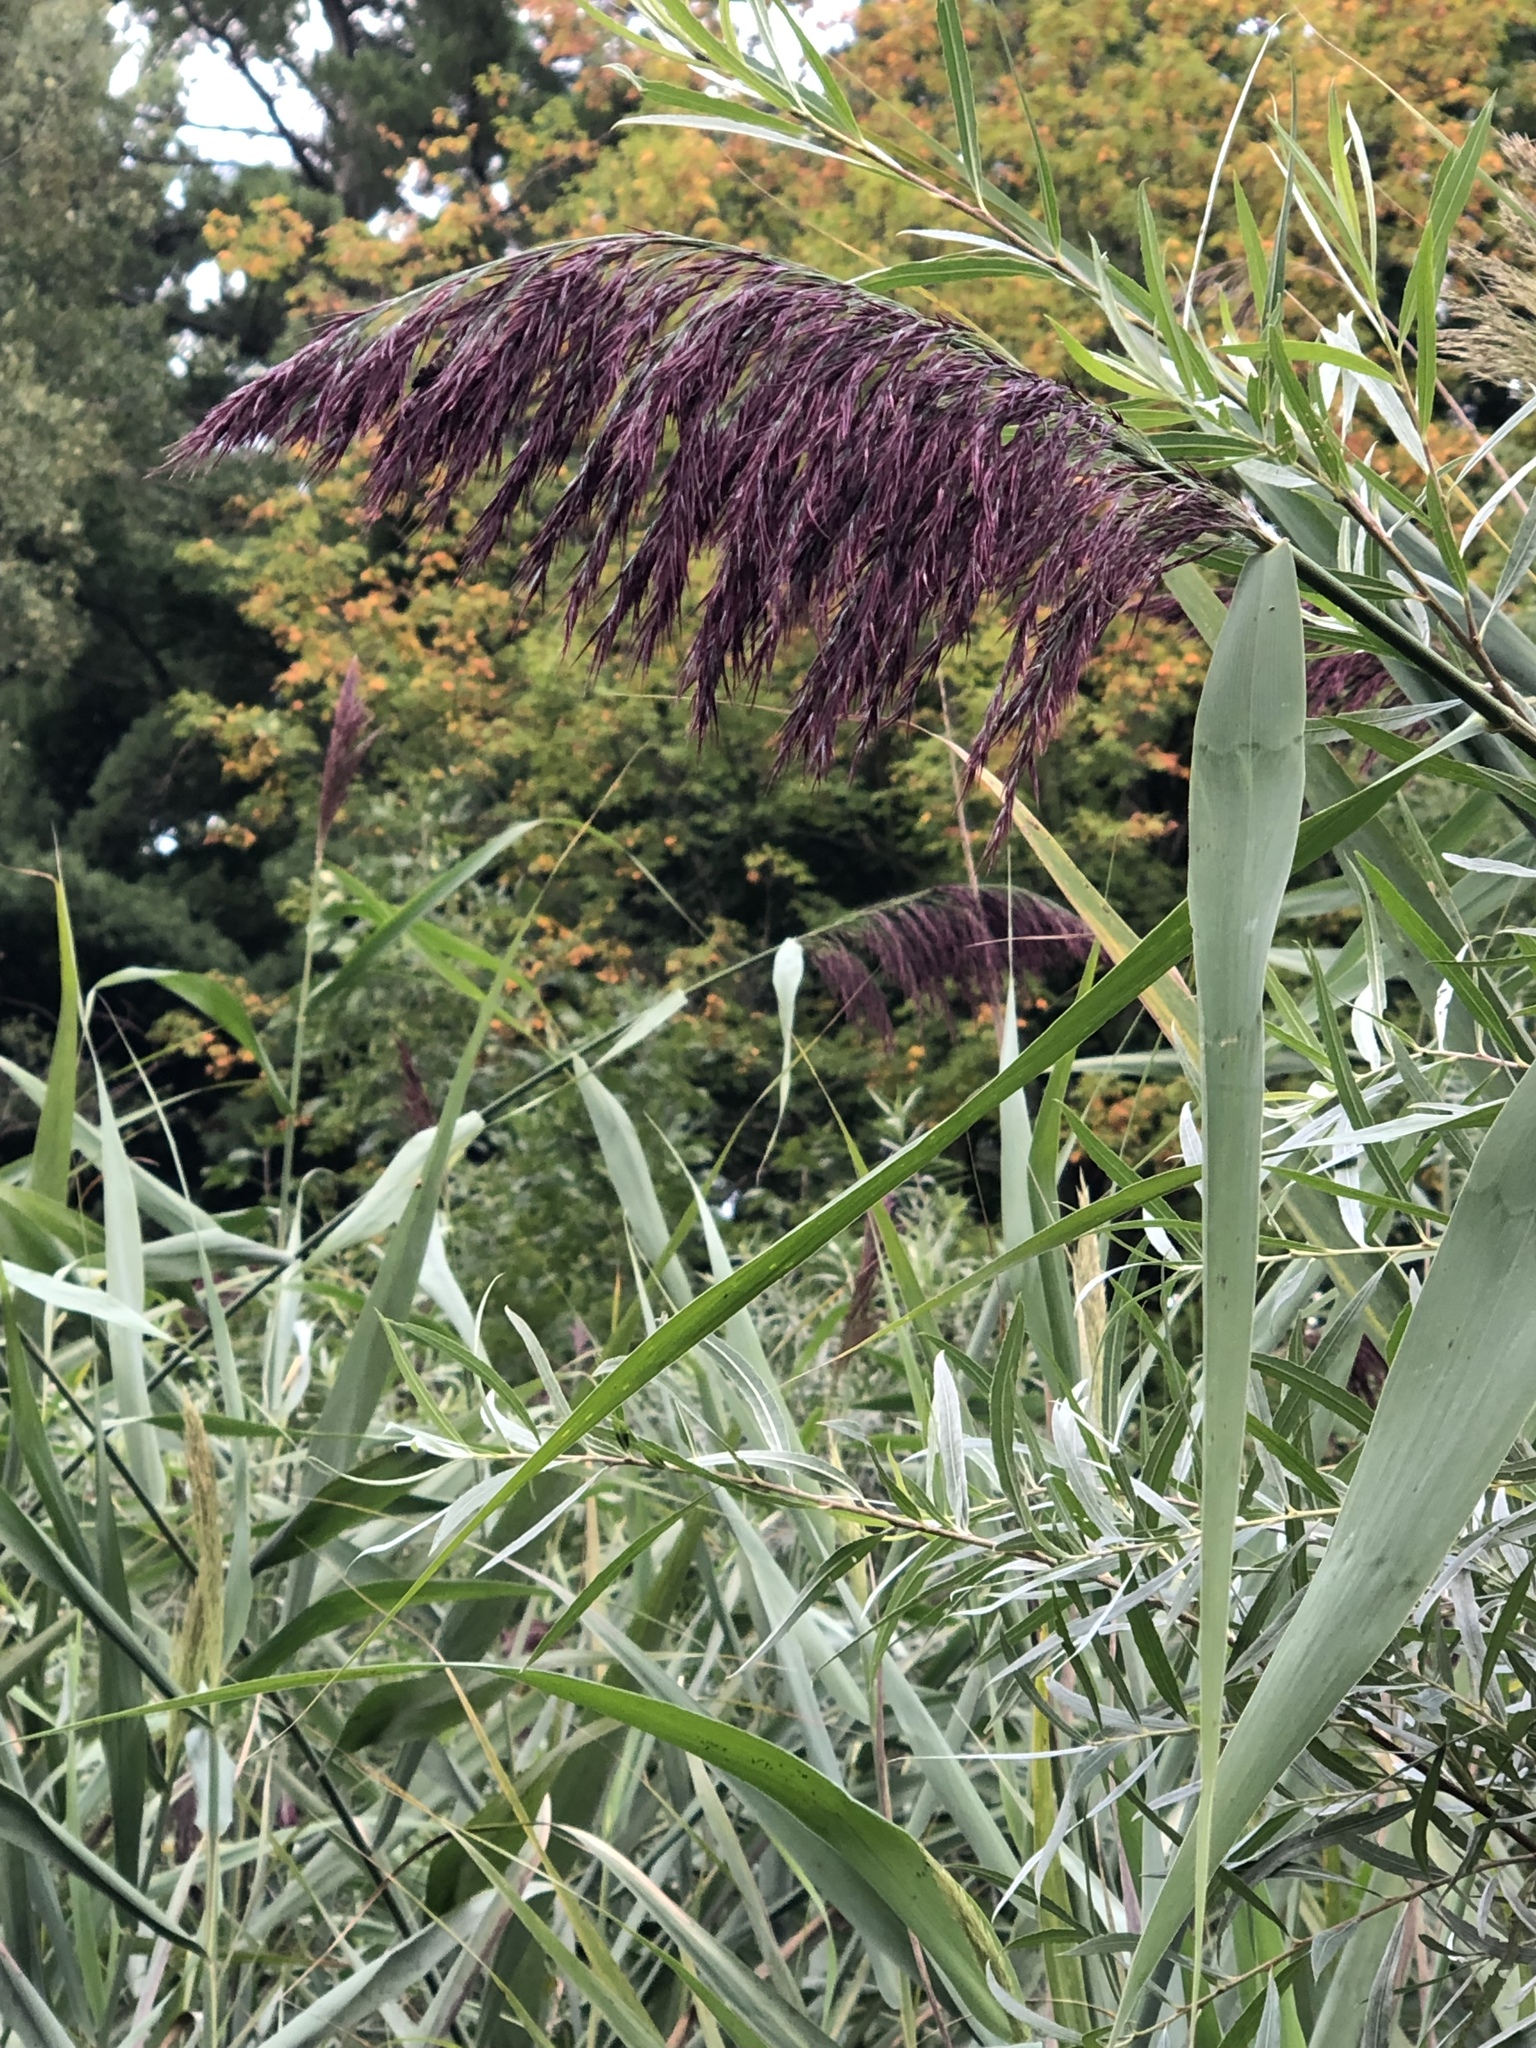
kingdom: Plantae
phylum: Tracheophyta
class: Liliopsida
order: Poales
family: Poaceae
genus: Phragmites
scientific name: Phragmites australis
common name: Common reed
